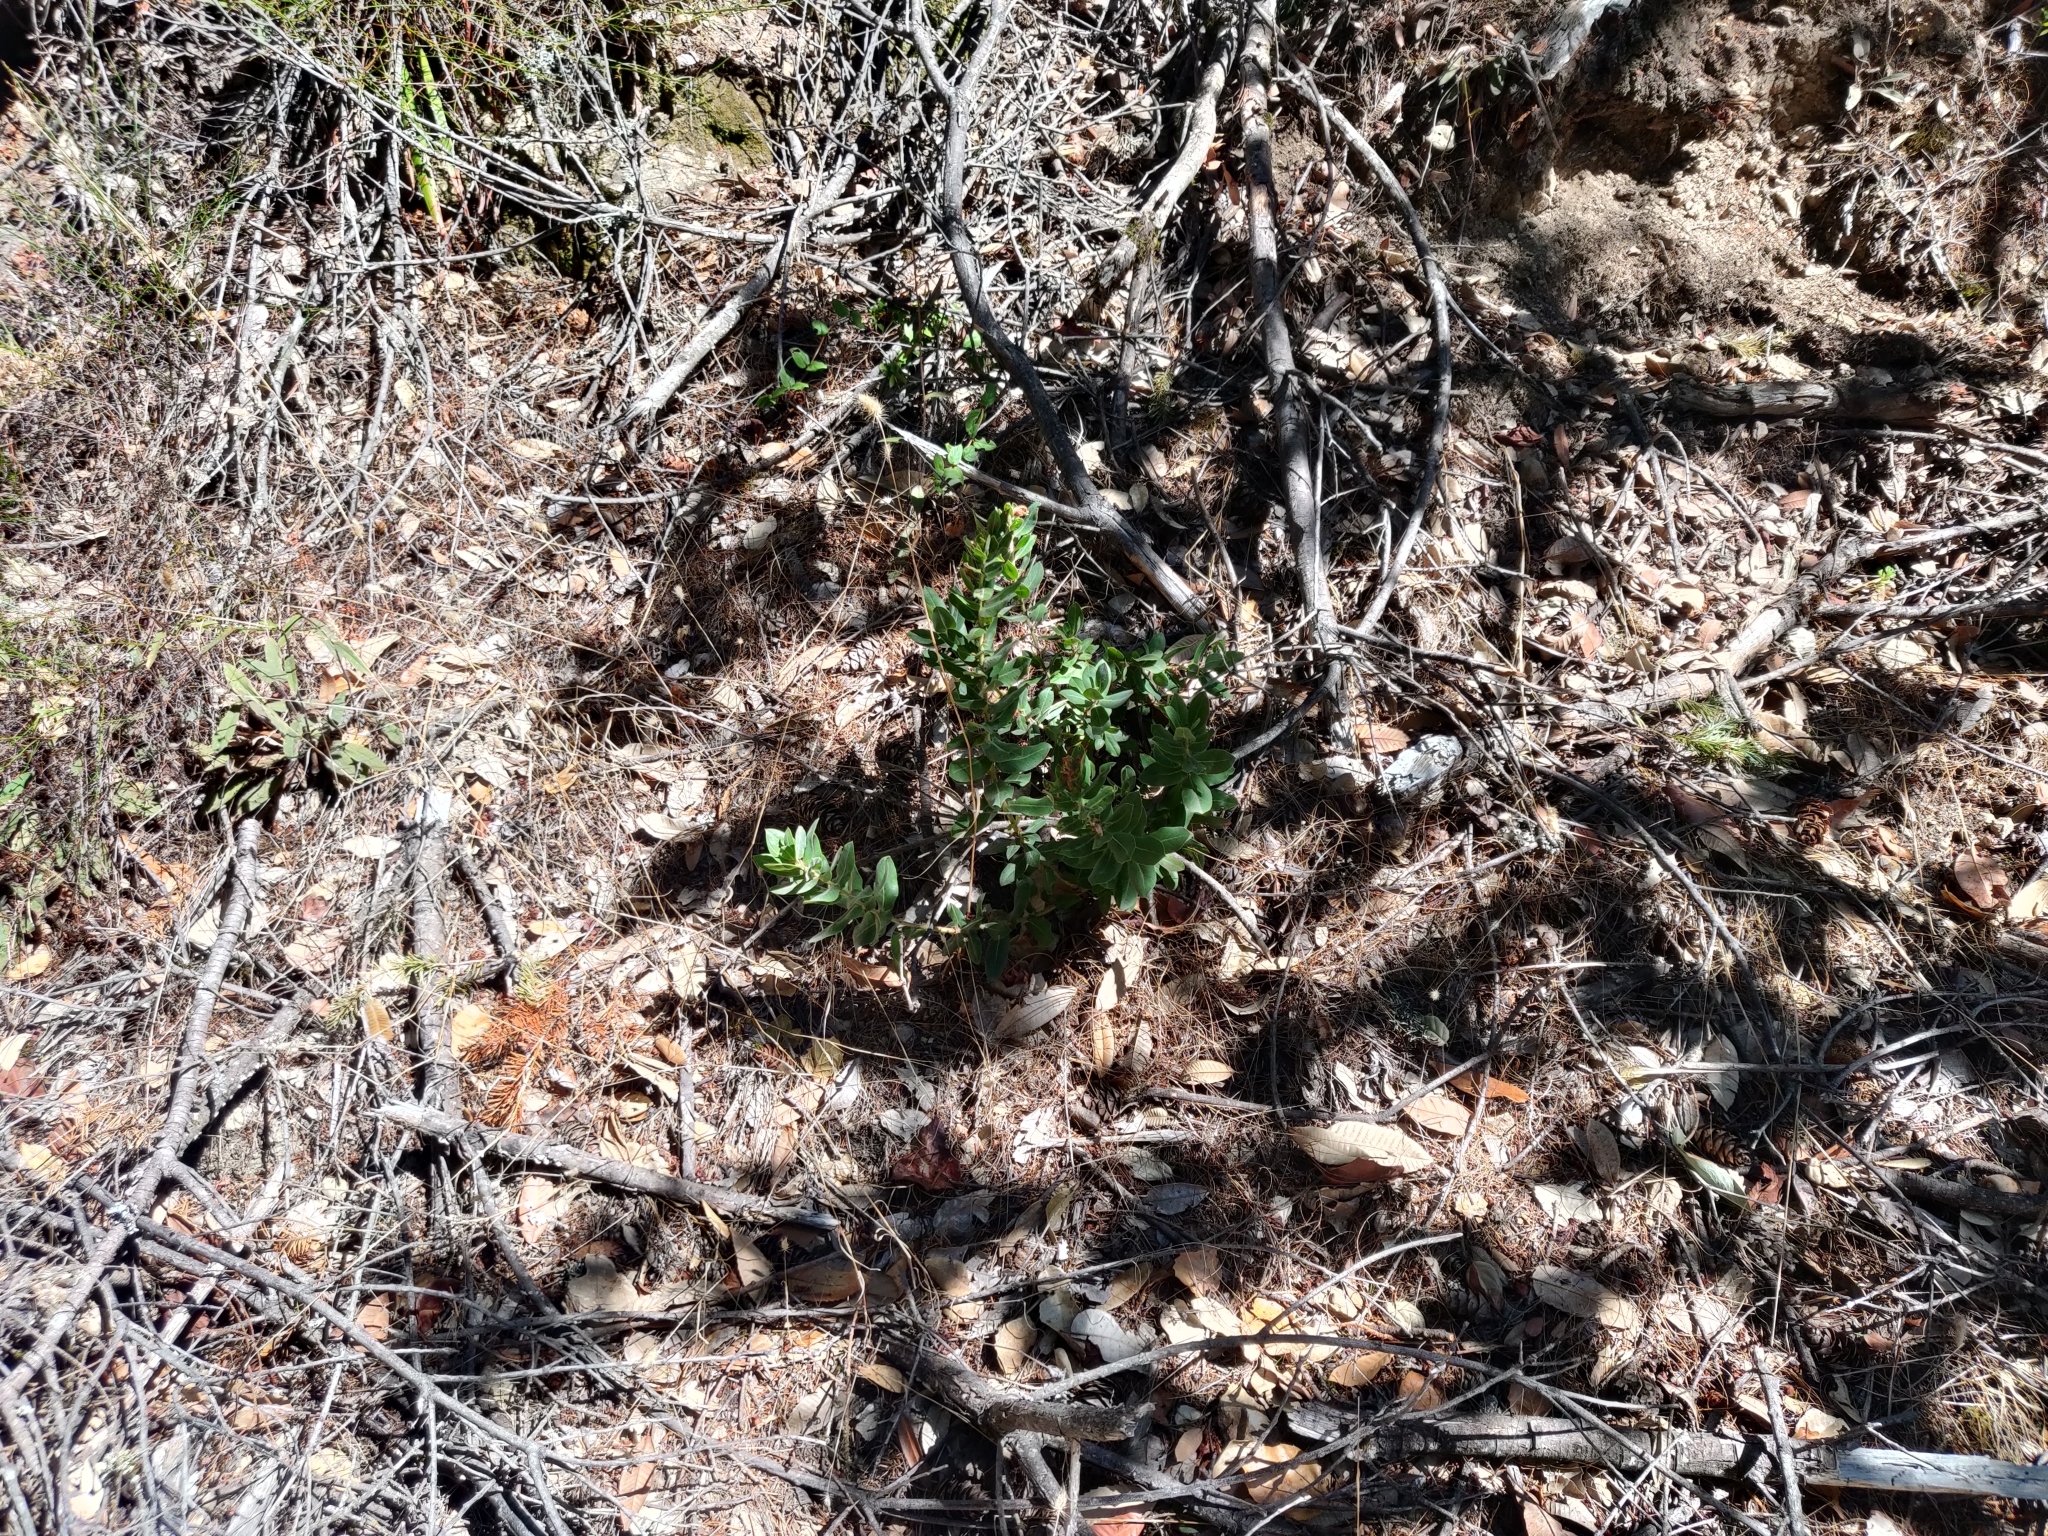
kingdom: Plantae
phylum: Tracheophyta
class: Magnoliopsida
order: Ericales
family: Ericaceae
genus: Arctostaphylos
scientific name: Arctostaphylos regismontana
